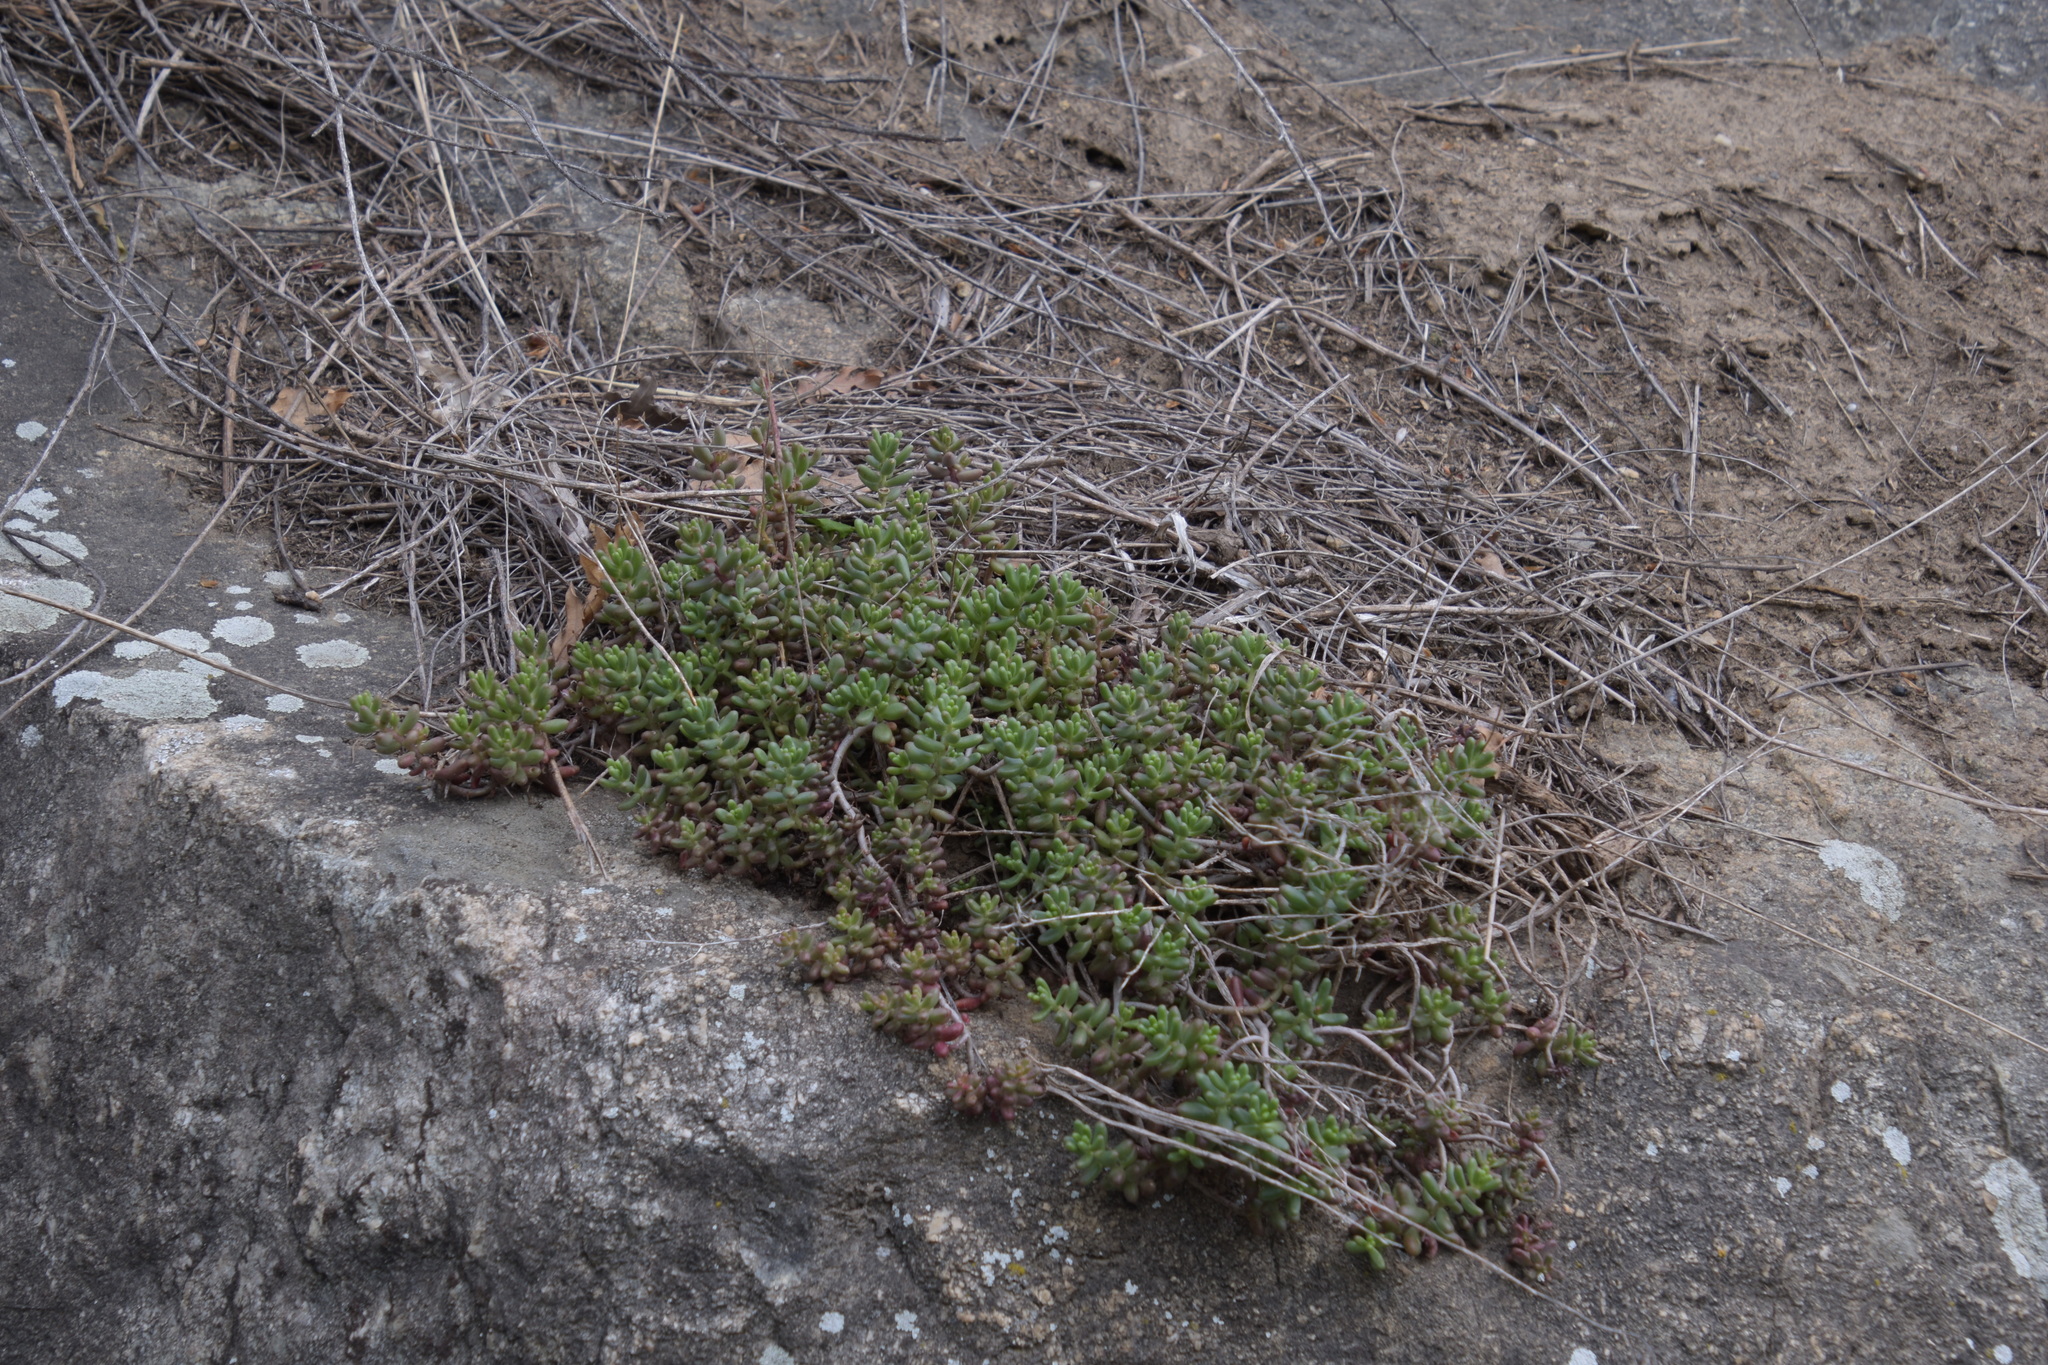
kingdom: Plantae
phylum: Tracheophyta
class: Magnoliopsida
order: Saxifragales
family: Crassulaceae
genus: Sedum
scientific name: Sedum album
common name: White stonecrop
